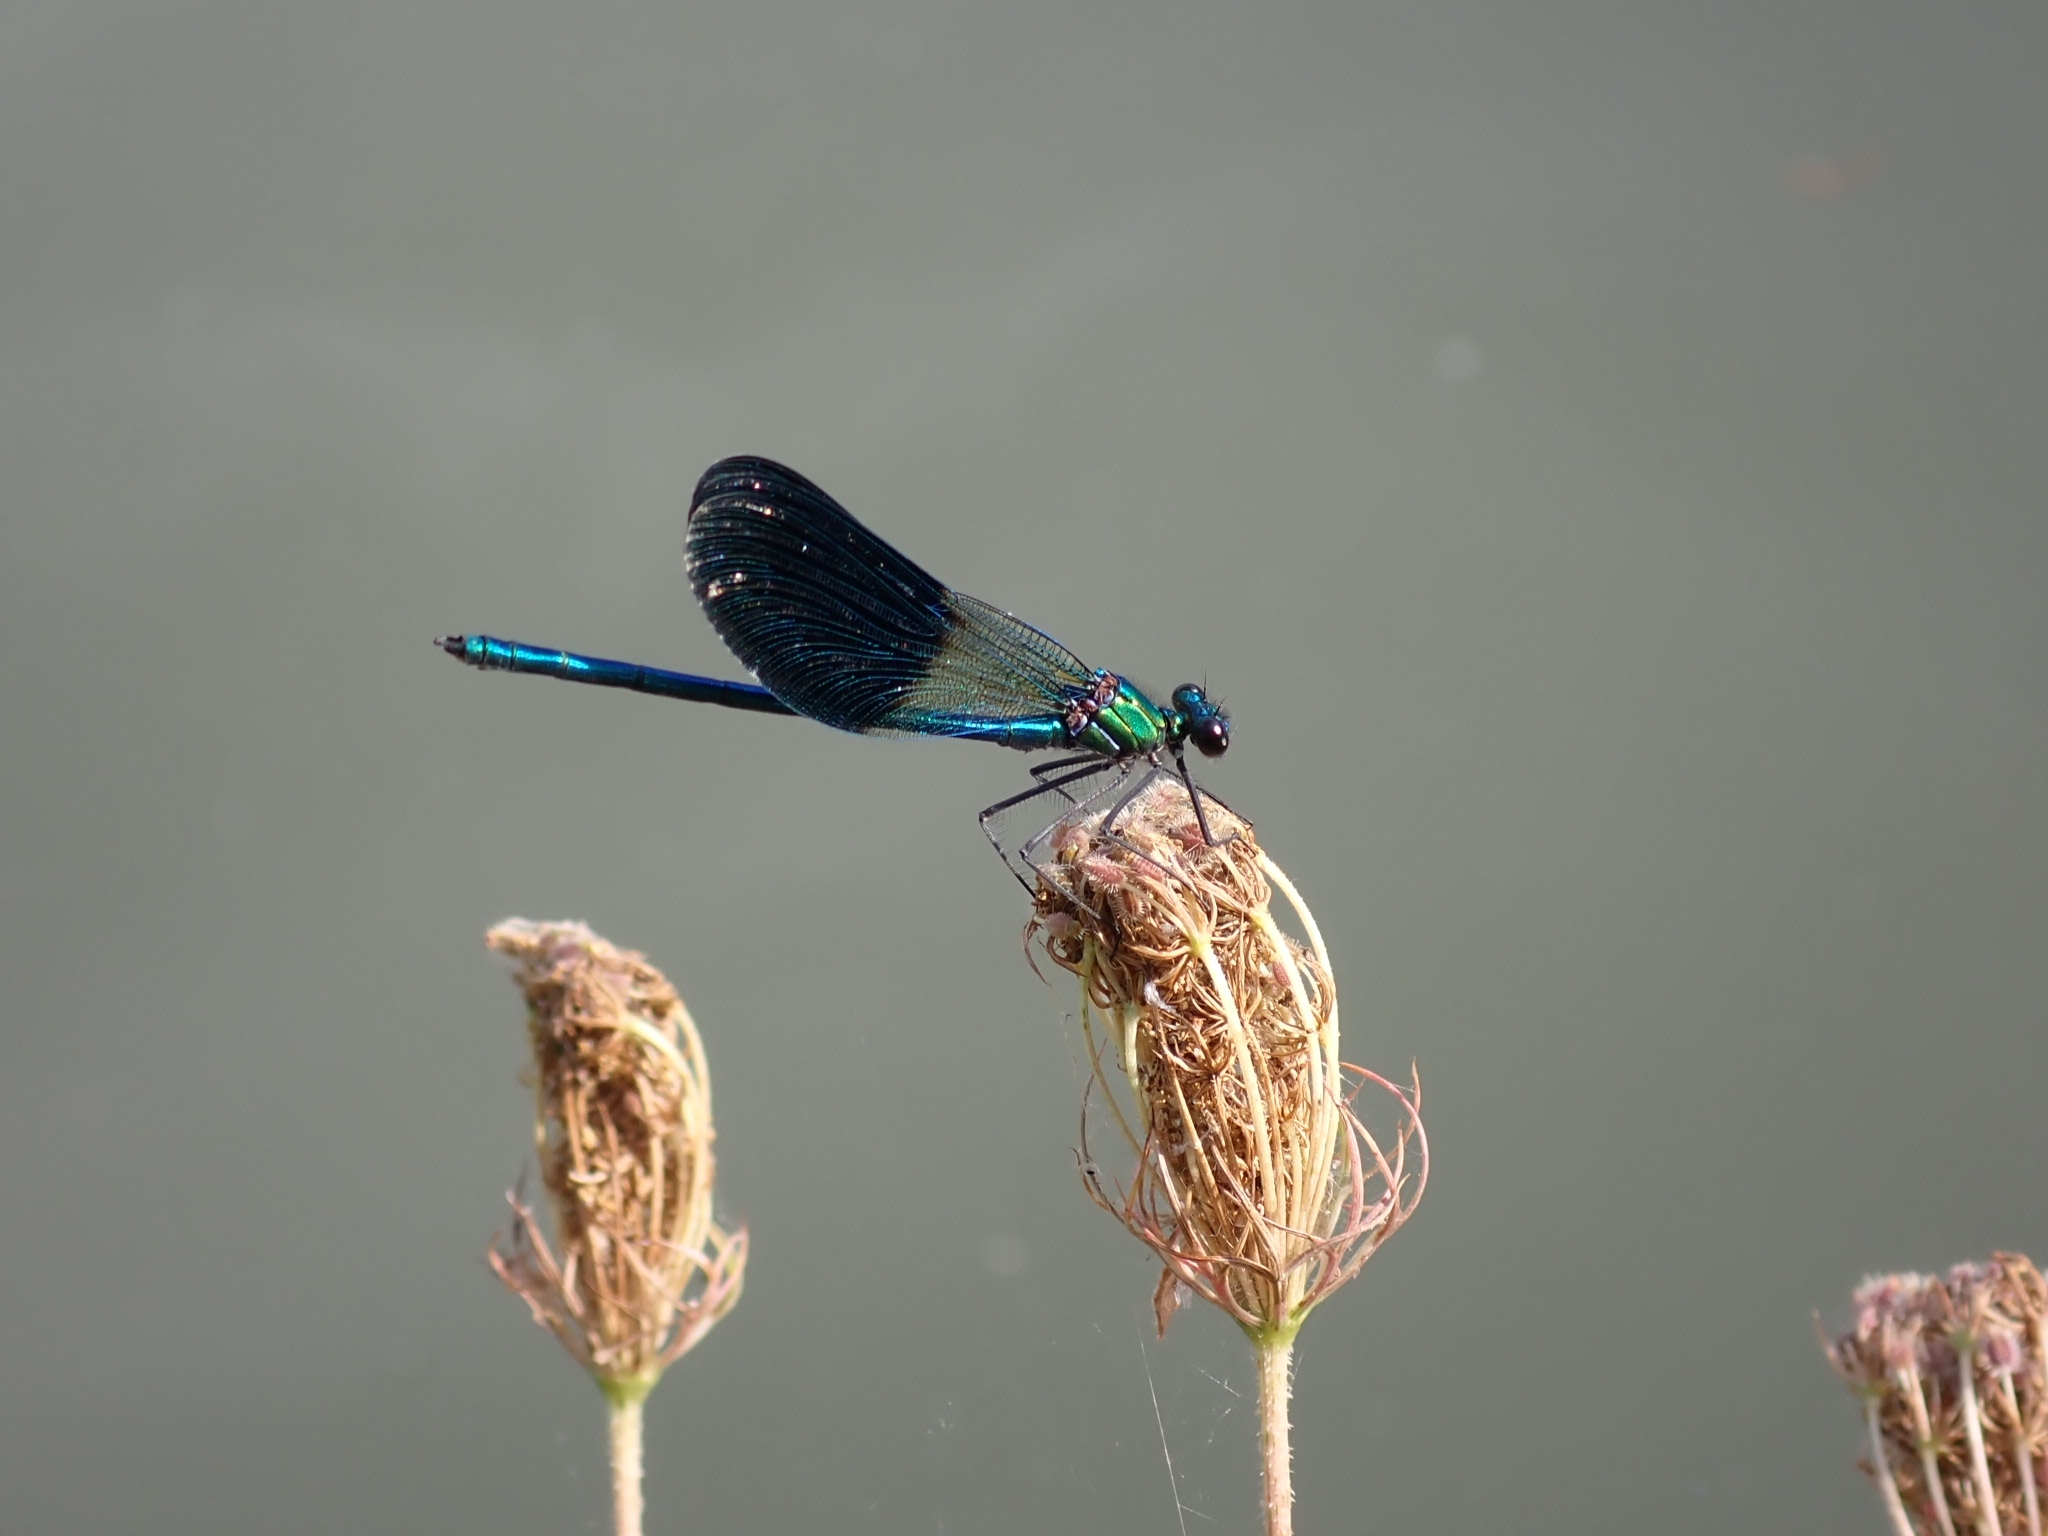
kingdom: Animalia
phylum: Arthropoda
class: Insecta
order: Odonata
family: Calopterygidae
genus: Calopteryx
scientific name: Calopteryx xanthostoma
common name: Western demoiselle
